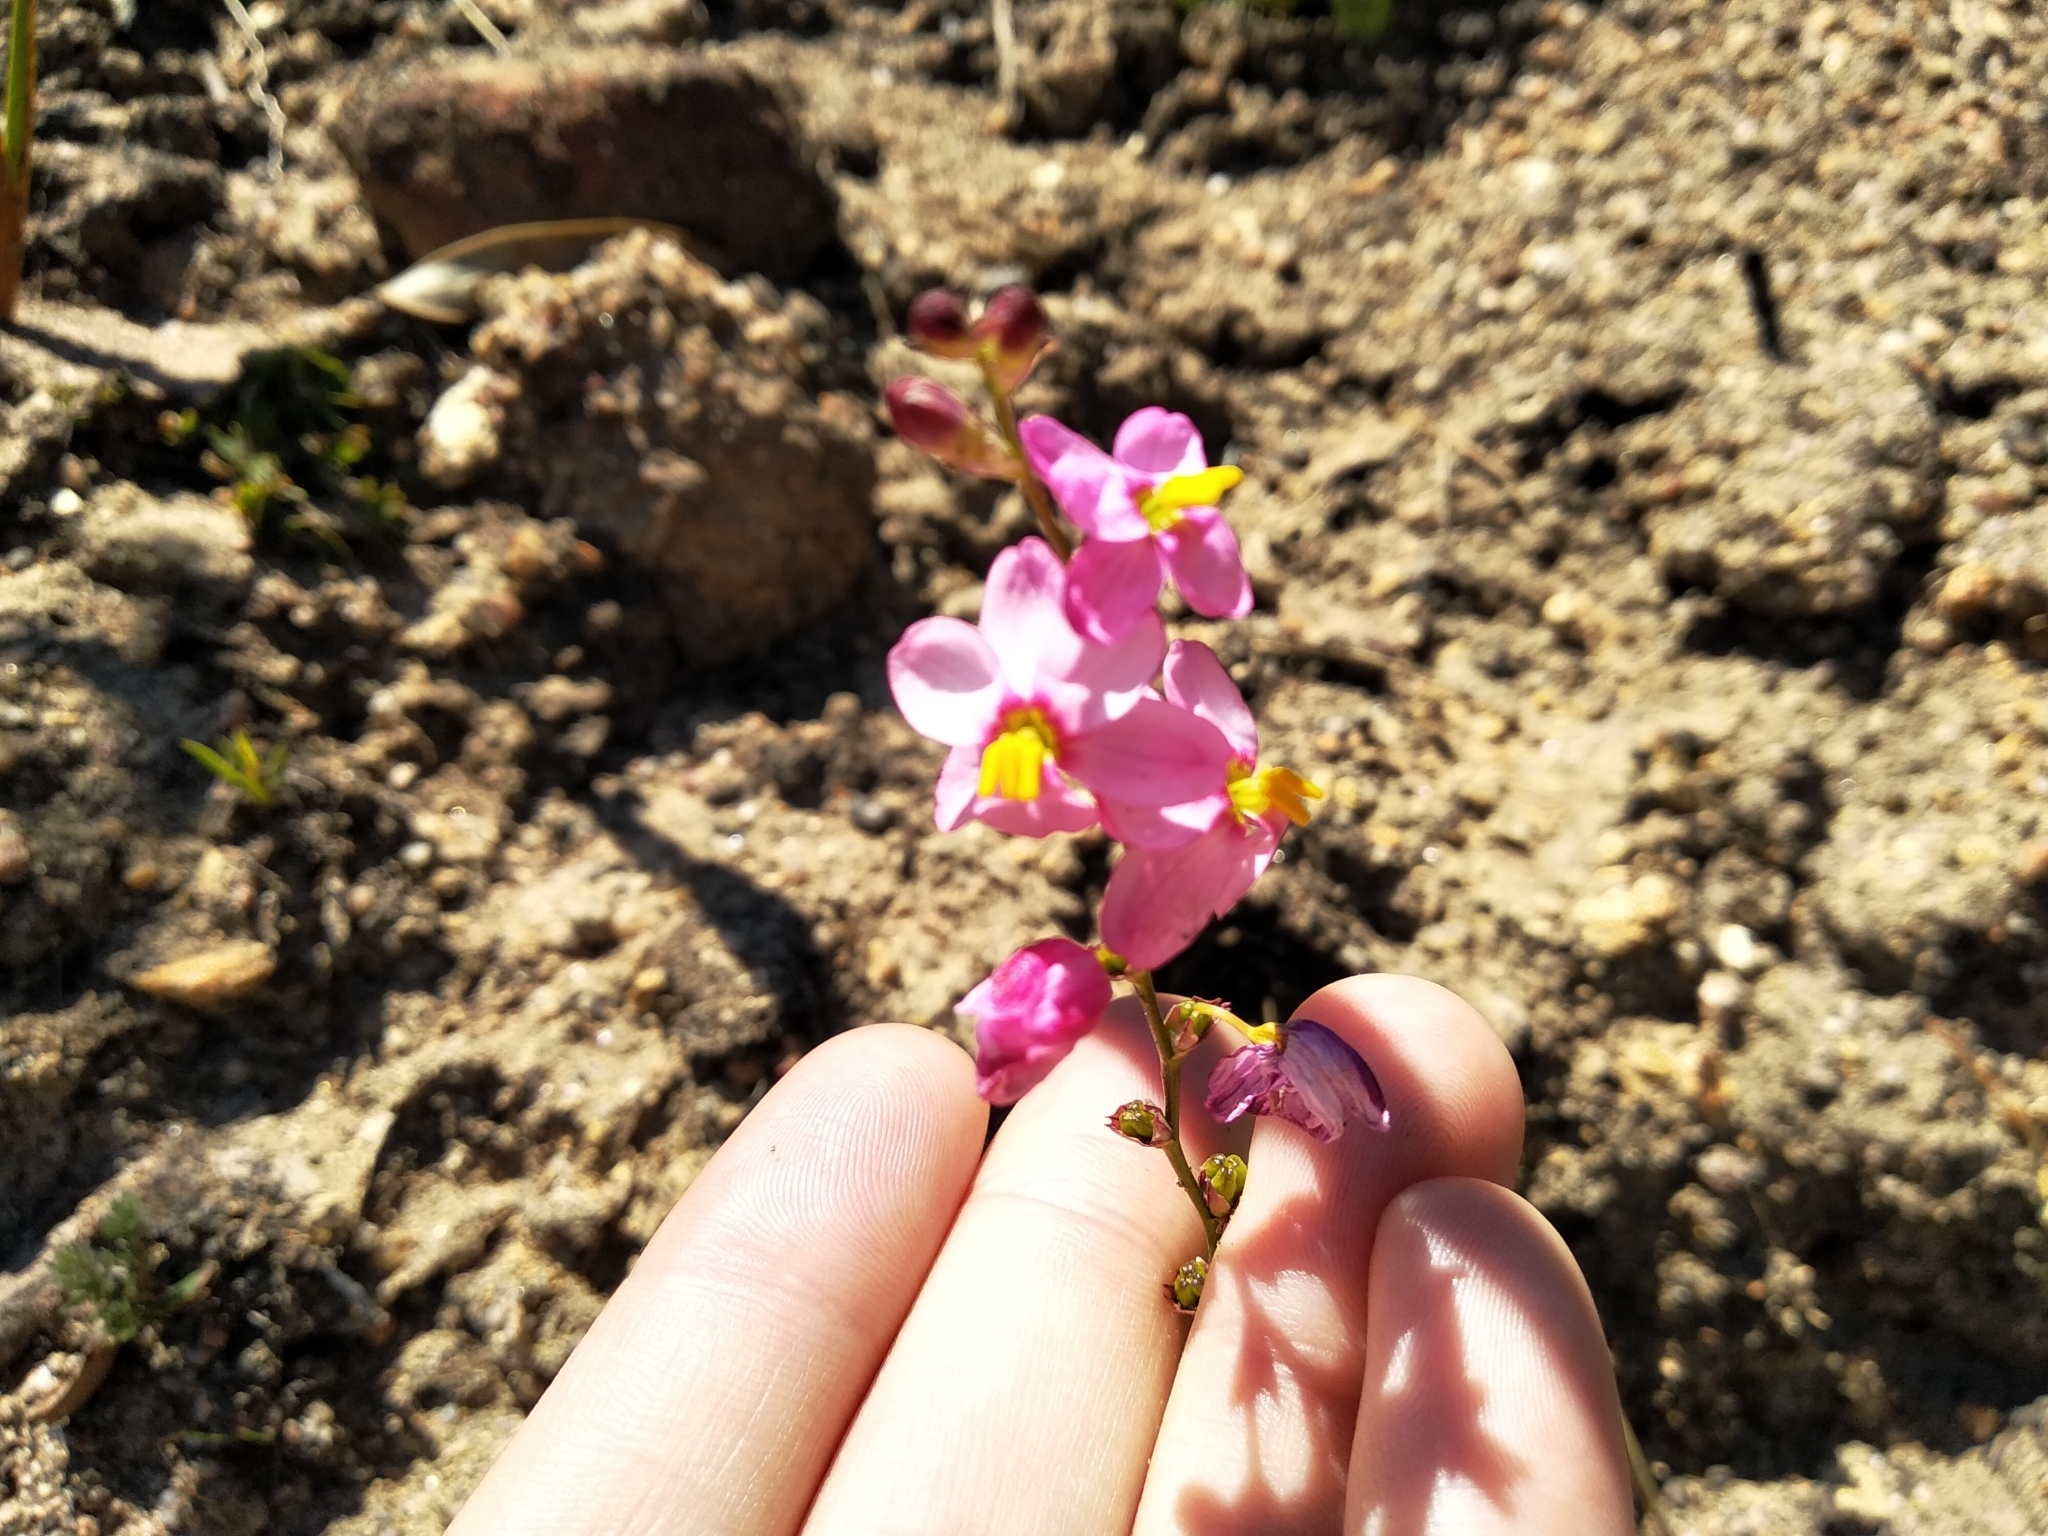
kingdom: Plantae
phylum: Tracheophyta
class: Liliopsida
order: Asparagales
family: Iridaceae
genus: Ixia
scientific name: Ixia scillaris
